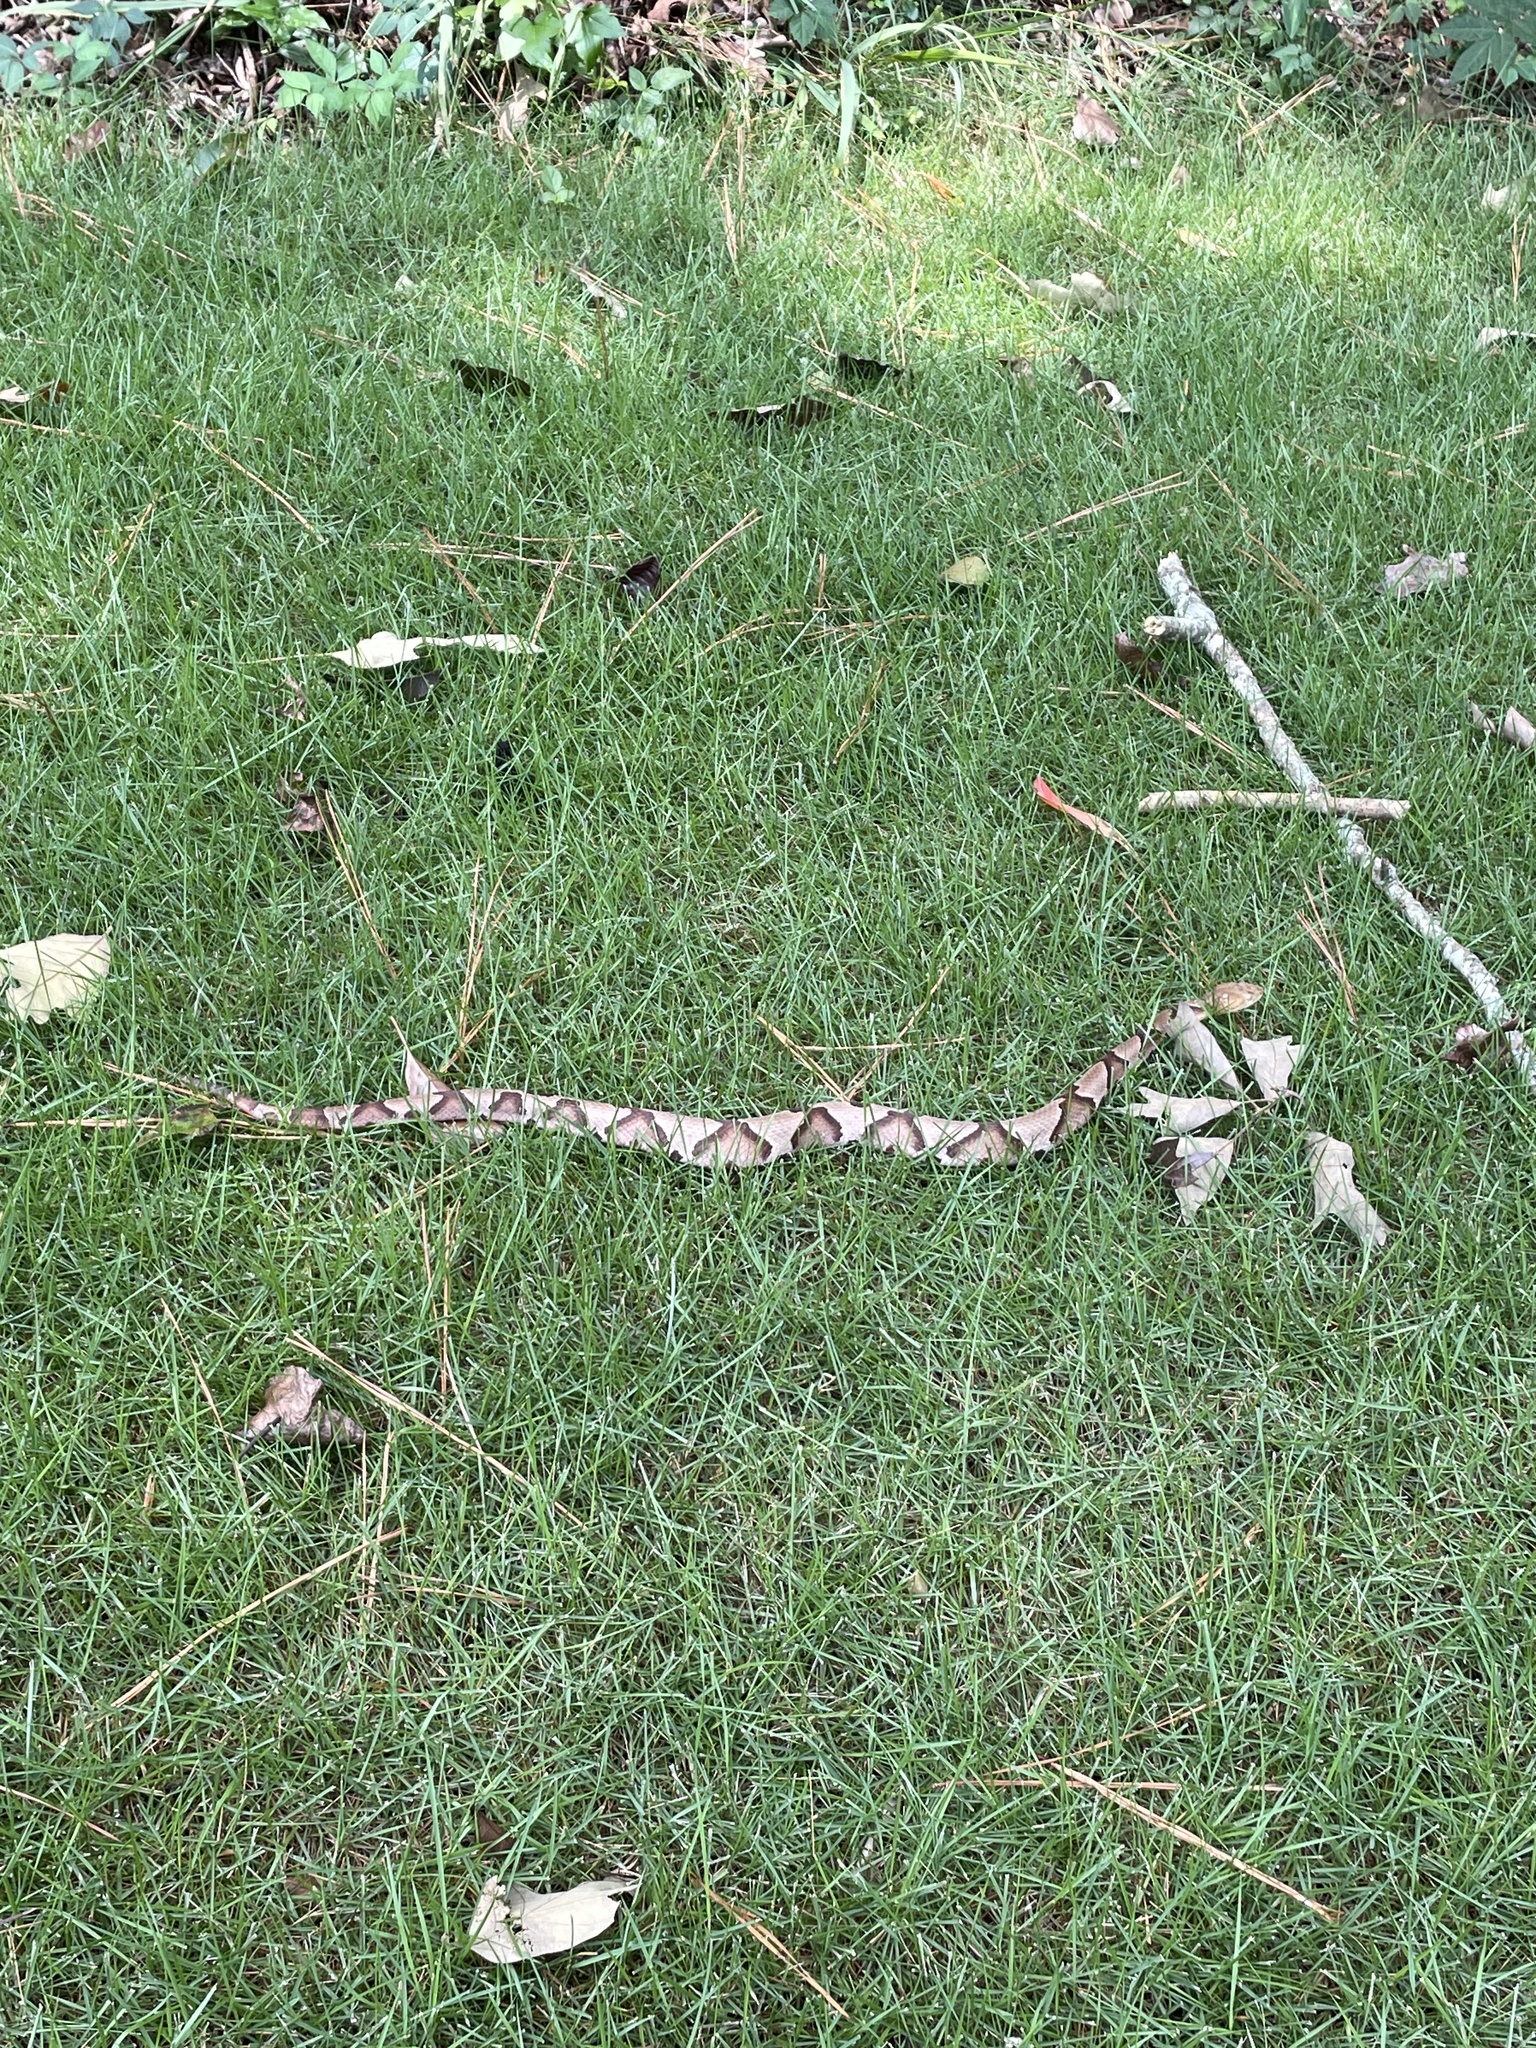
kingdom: Animalia
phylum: Chordata
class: Squamata
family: Viperidae
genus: Agkistrodon
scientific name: Agkistrodon contortrix
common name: Northern copperhead
